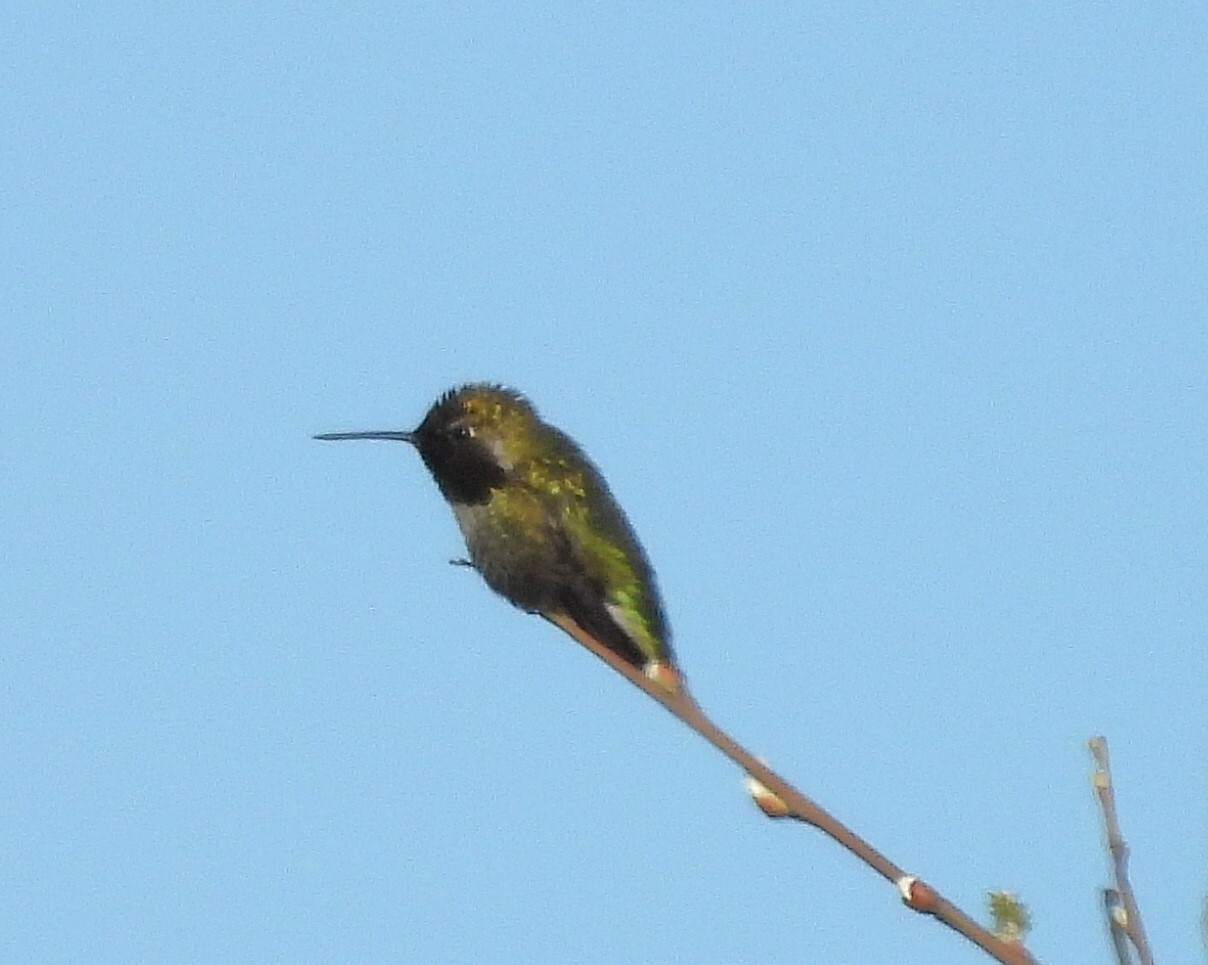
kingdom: Animalia
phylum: Chordata
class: Aves
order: Apodiformes
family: Trochilidae
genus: Calypte
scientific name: Calypte anna
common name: Anna's hummingbird
